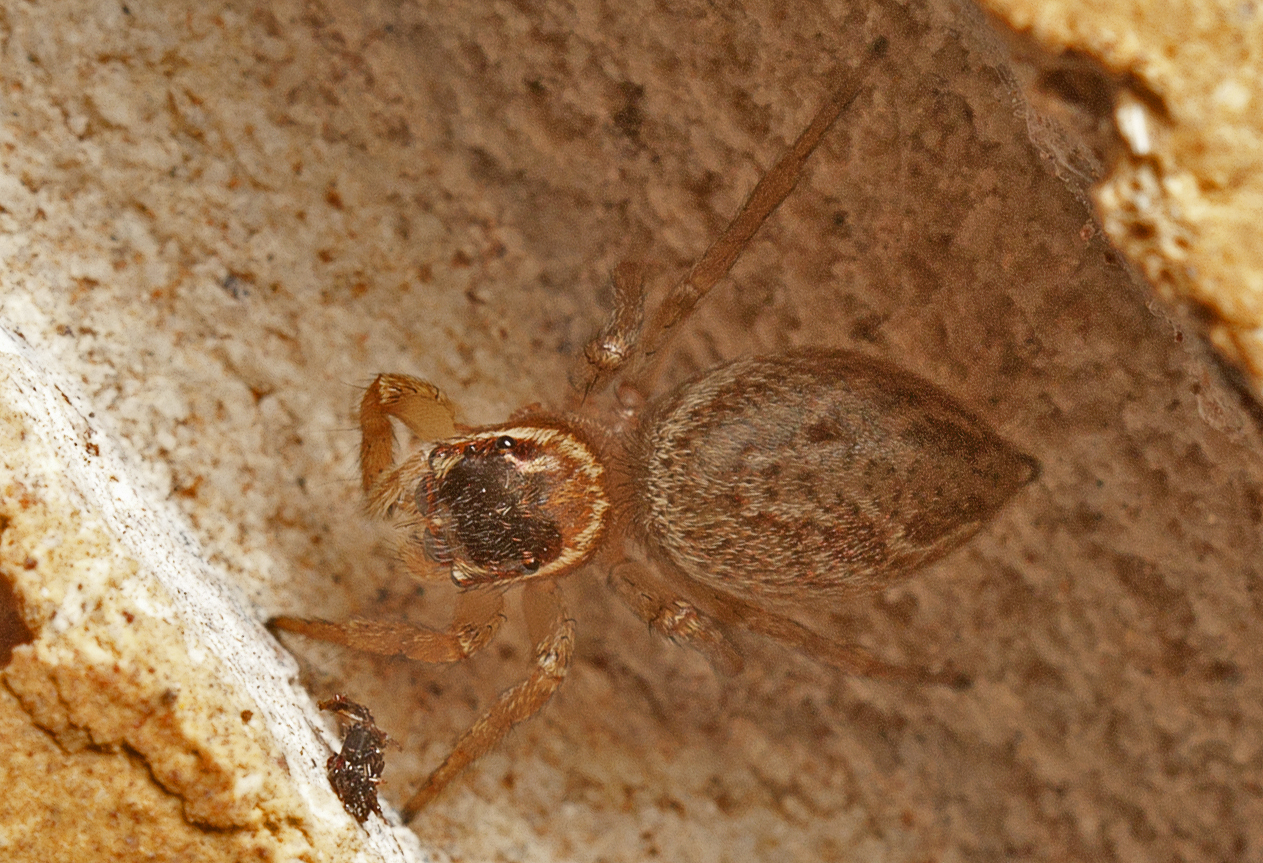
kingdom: Animalia
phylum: Arthropoda
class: Arachnida
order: Araneae
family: Salticidae
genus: Maratus
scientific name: Maratus griseus
